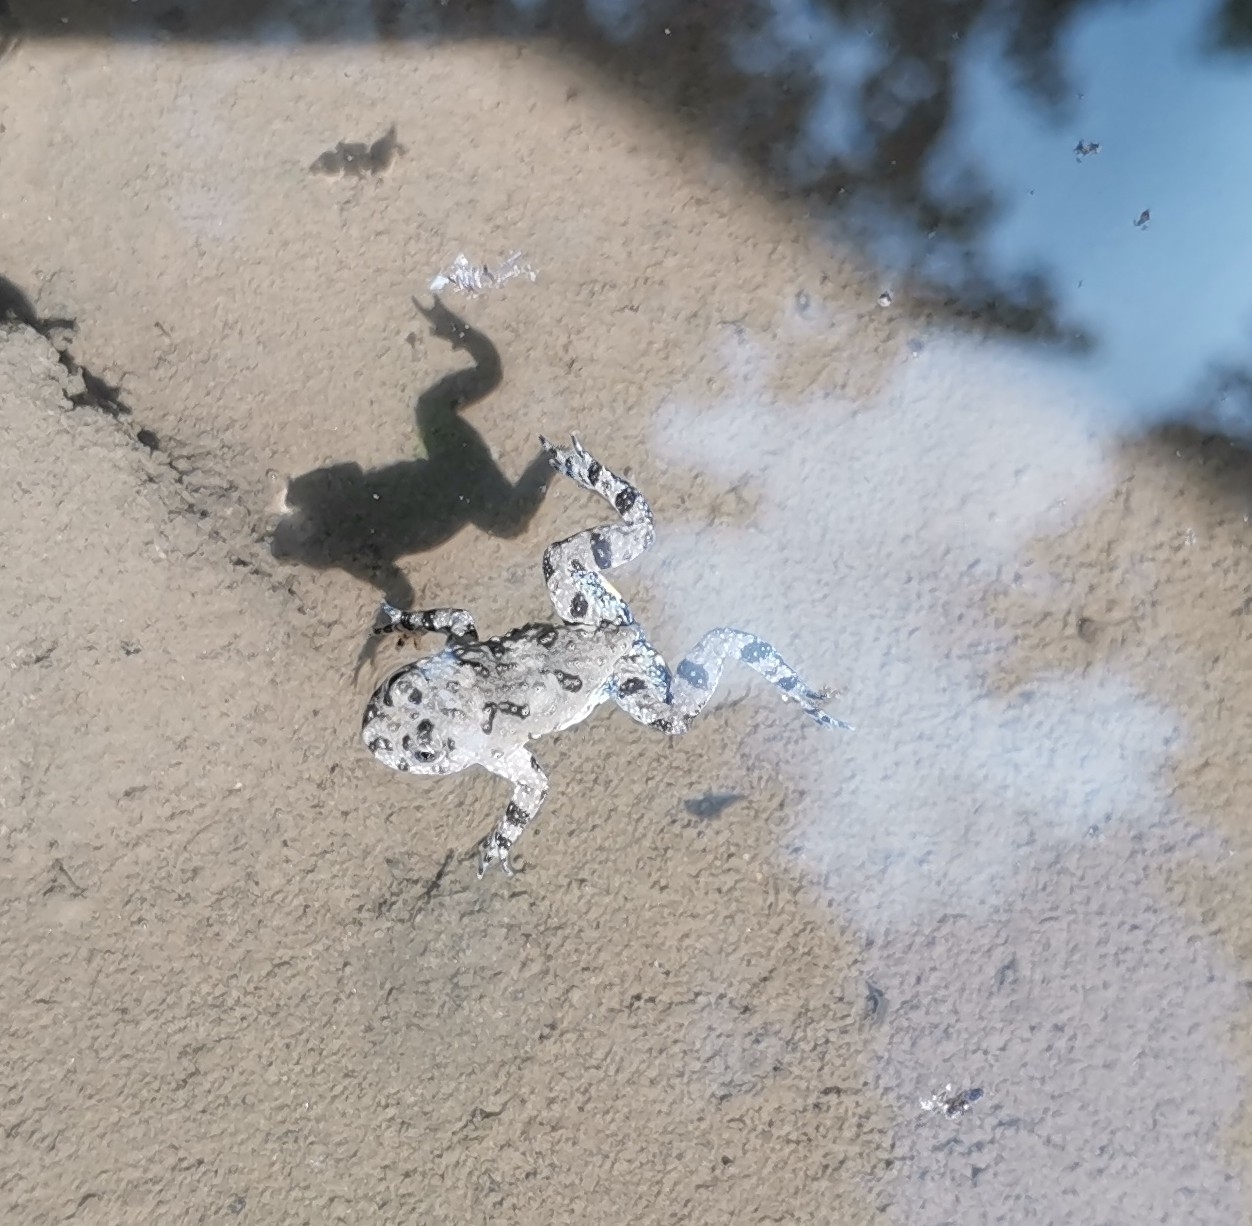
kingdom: Animalia
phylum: Chordata
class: Amphibia
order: Anura
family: Bombinatoridae
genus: Bombina
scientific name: Bombina variegata
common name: Yellow-bellied toad
